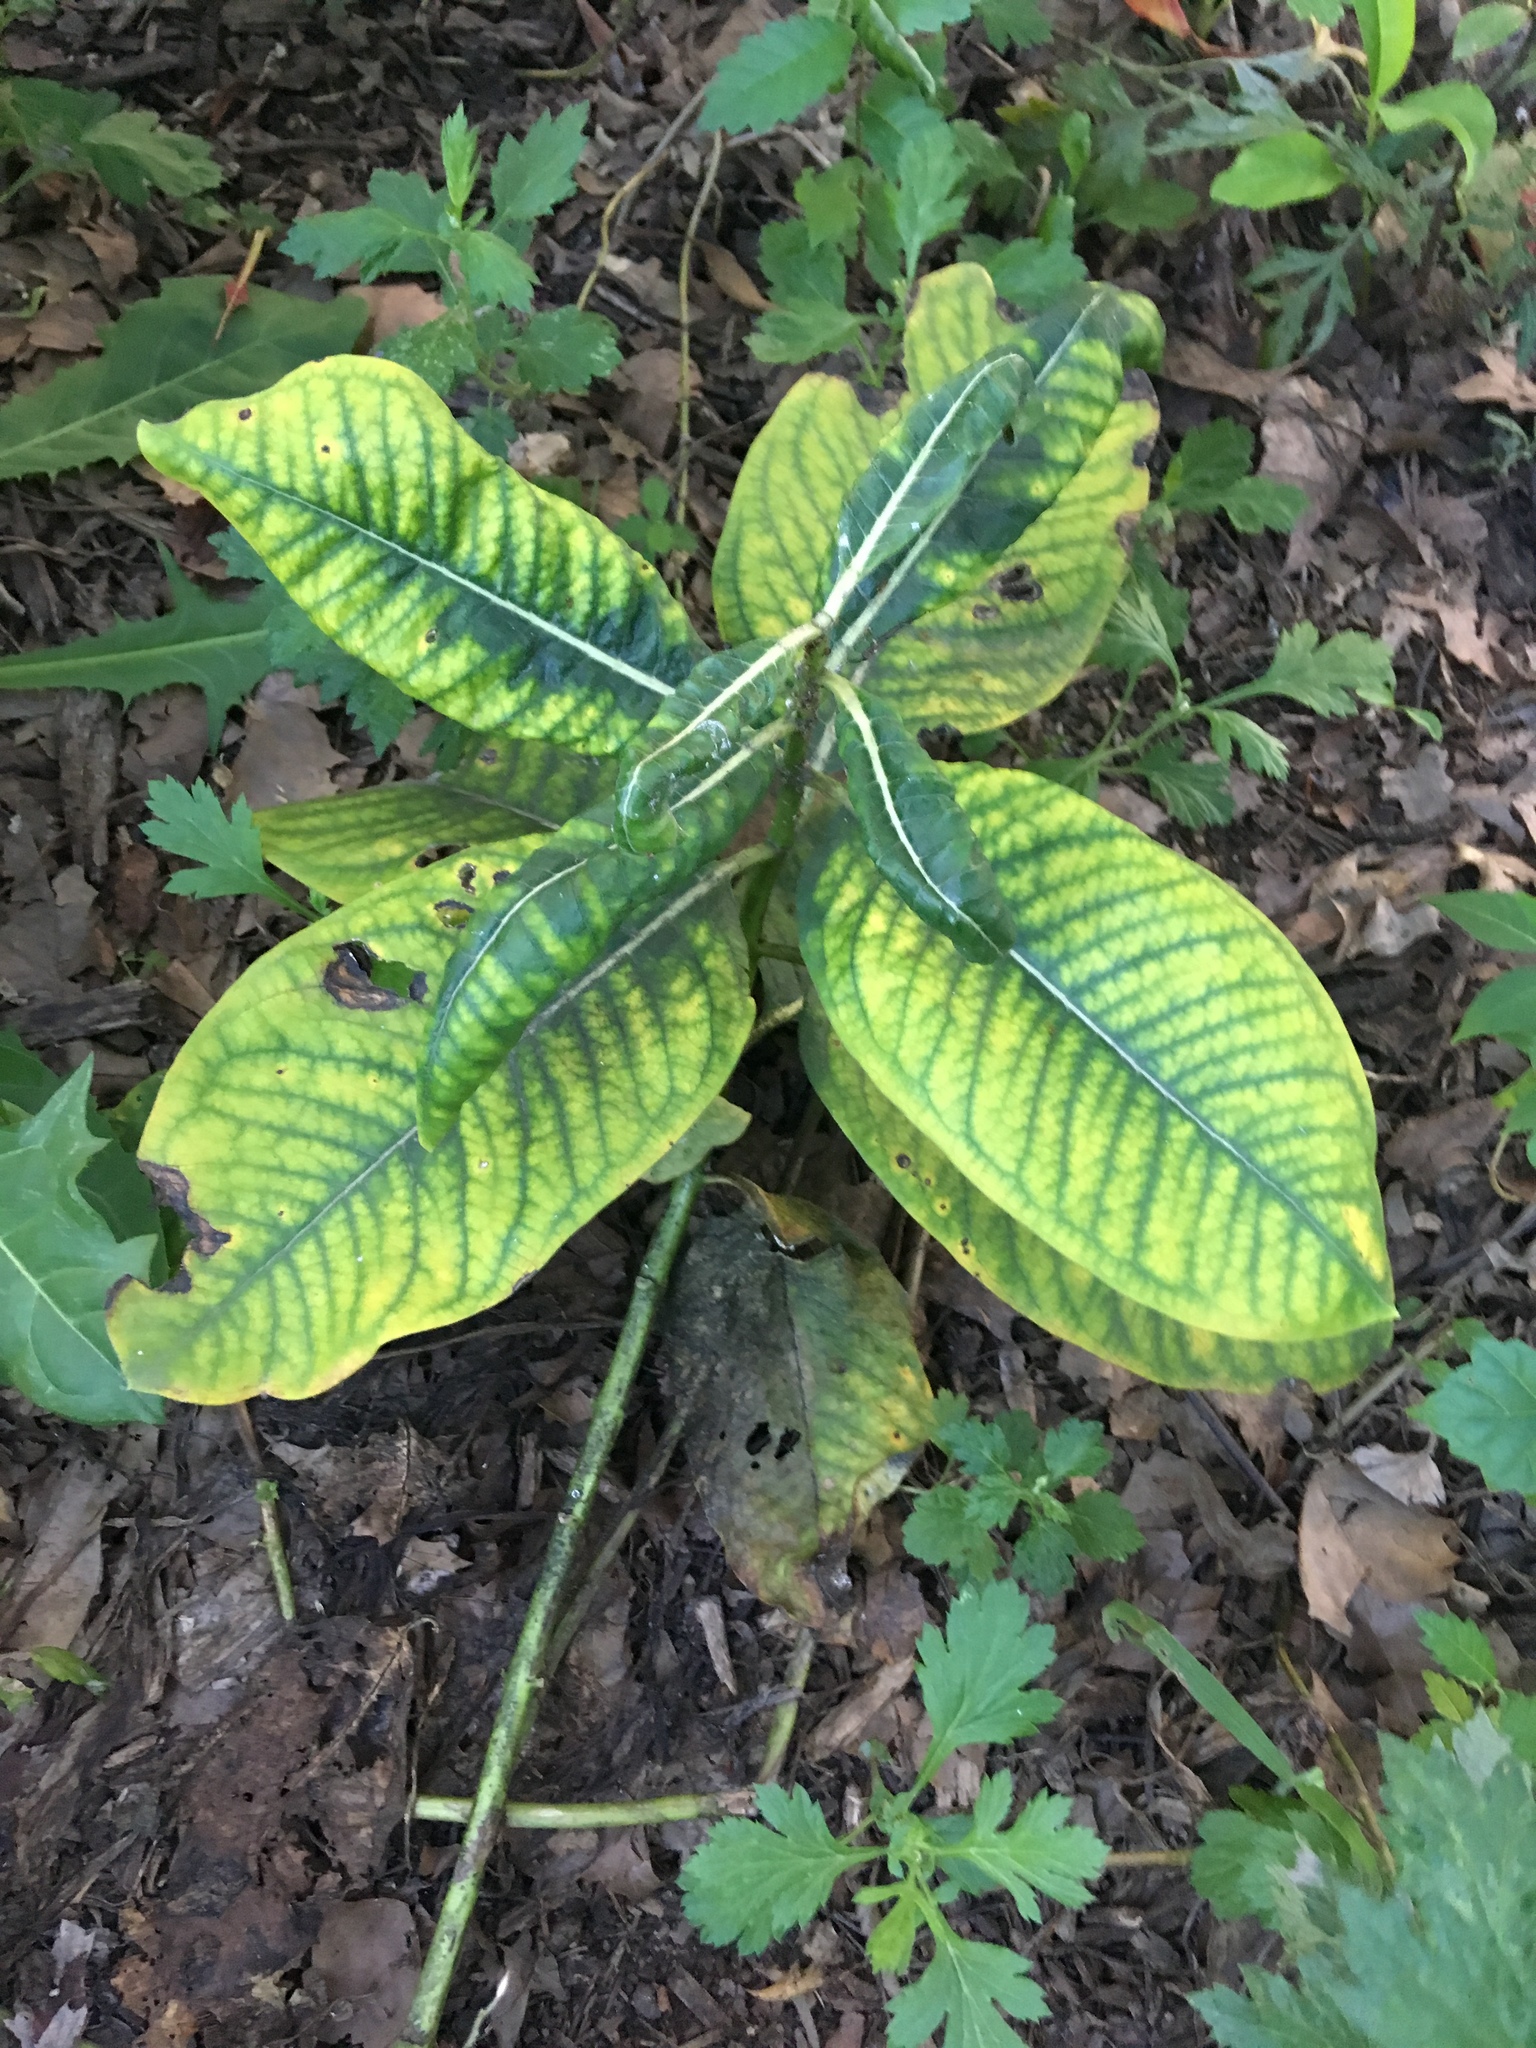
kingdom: Plantae
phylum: Tracheophyta
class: Magnoliopsida
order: Gentianales
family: Apocynaceae
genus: Asclepias
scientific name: Asclepias syriaca
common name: Common milkweed
